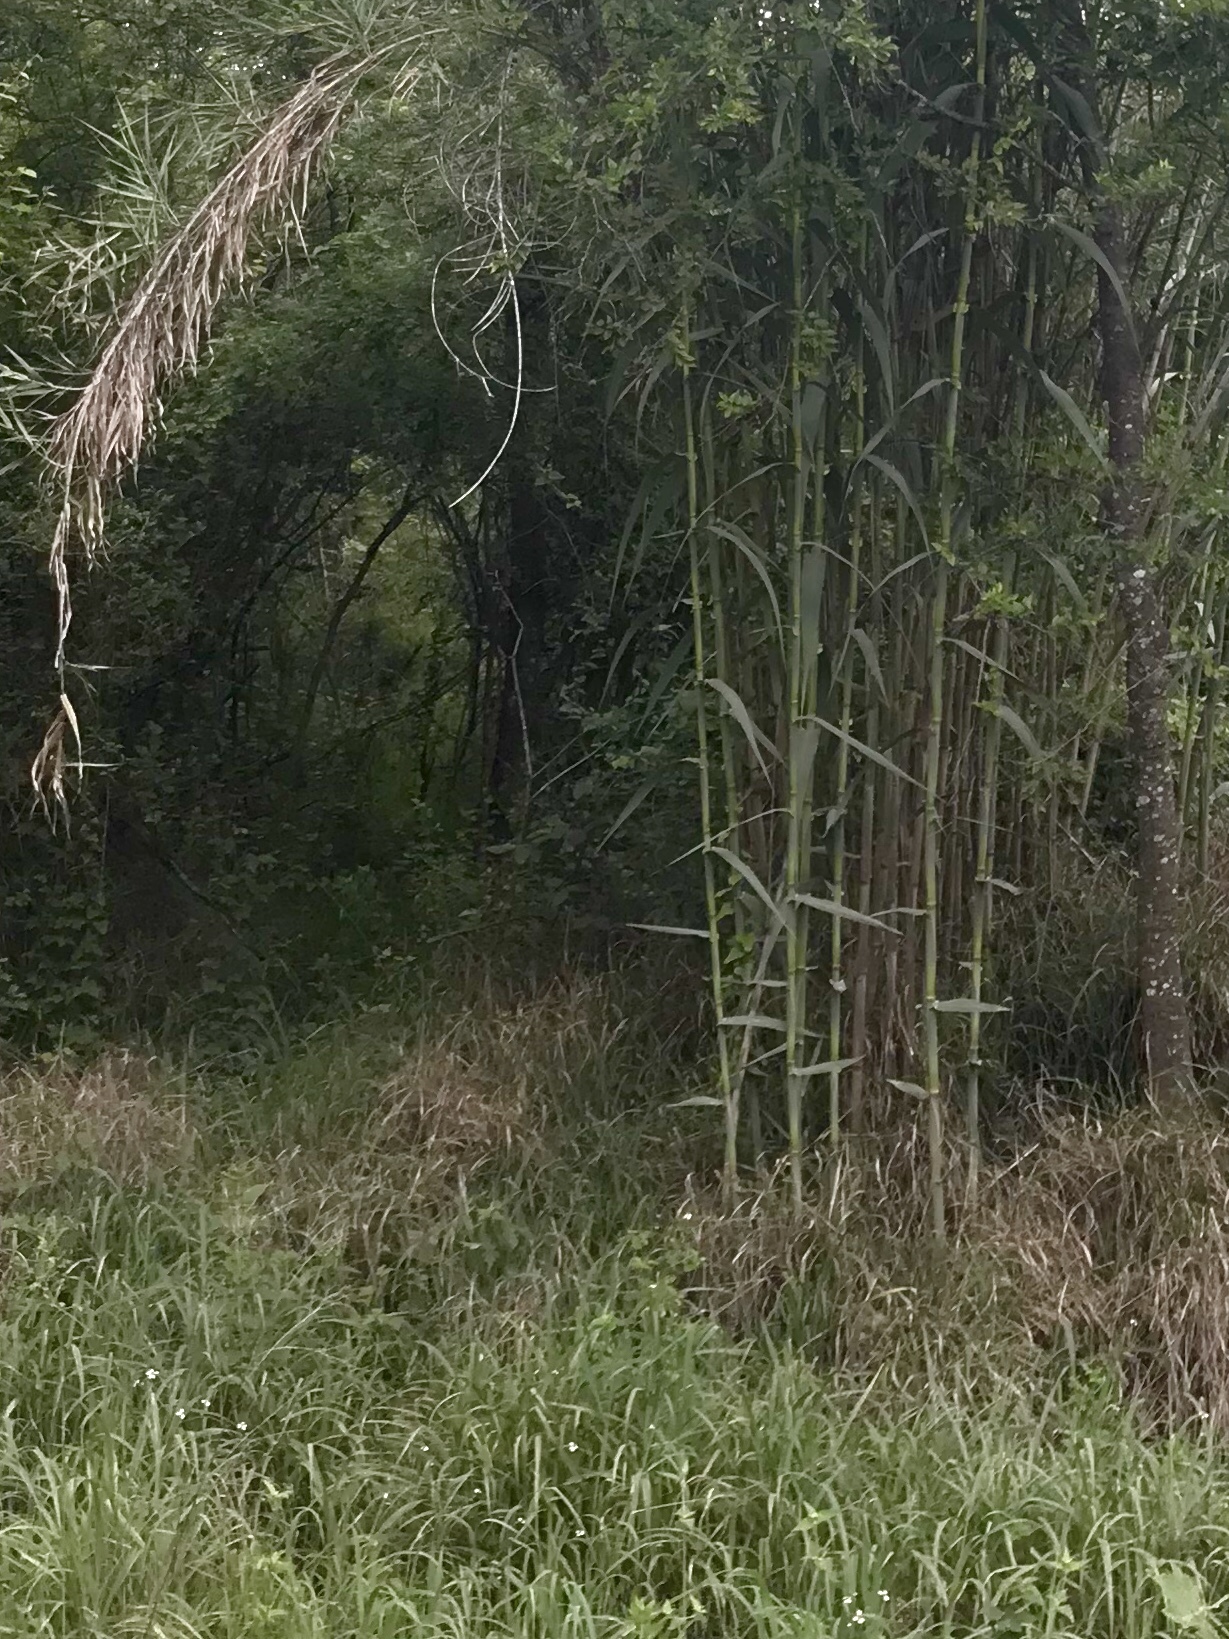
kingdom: Plantae
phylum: Tracheophyta
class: Liliopsida
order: Poales
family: Poaceae
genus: Arundo
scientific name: Arundo donax
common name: Giant reed
